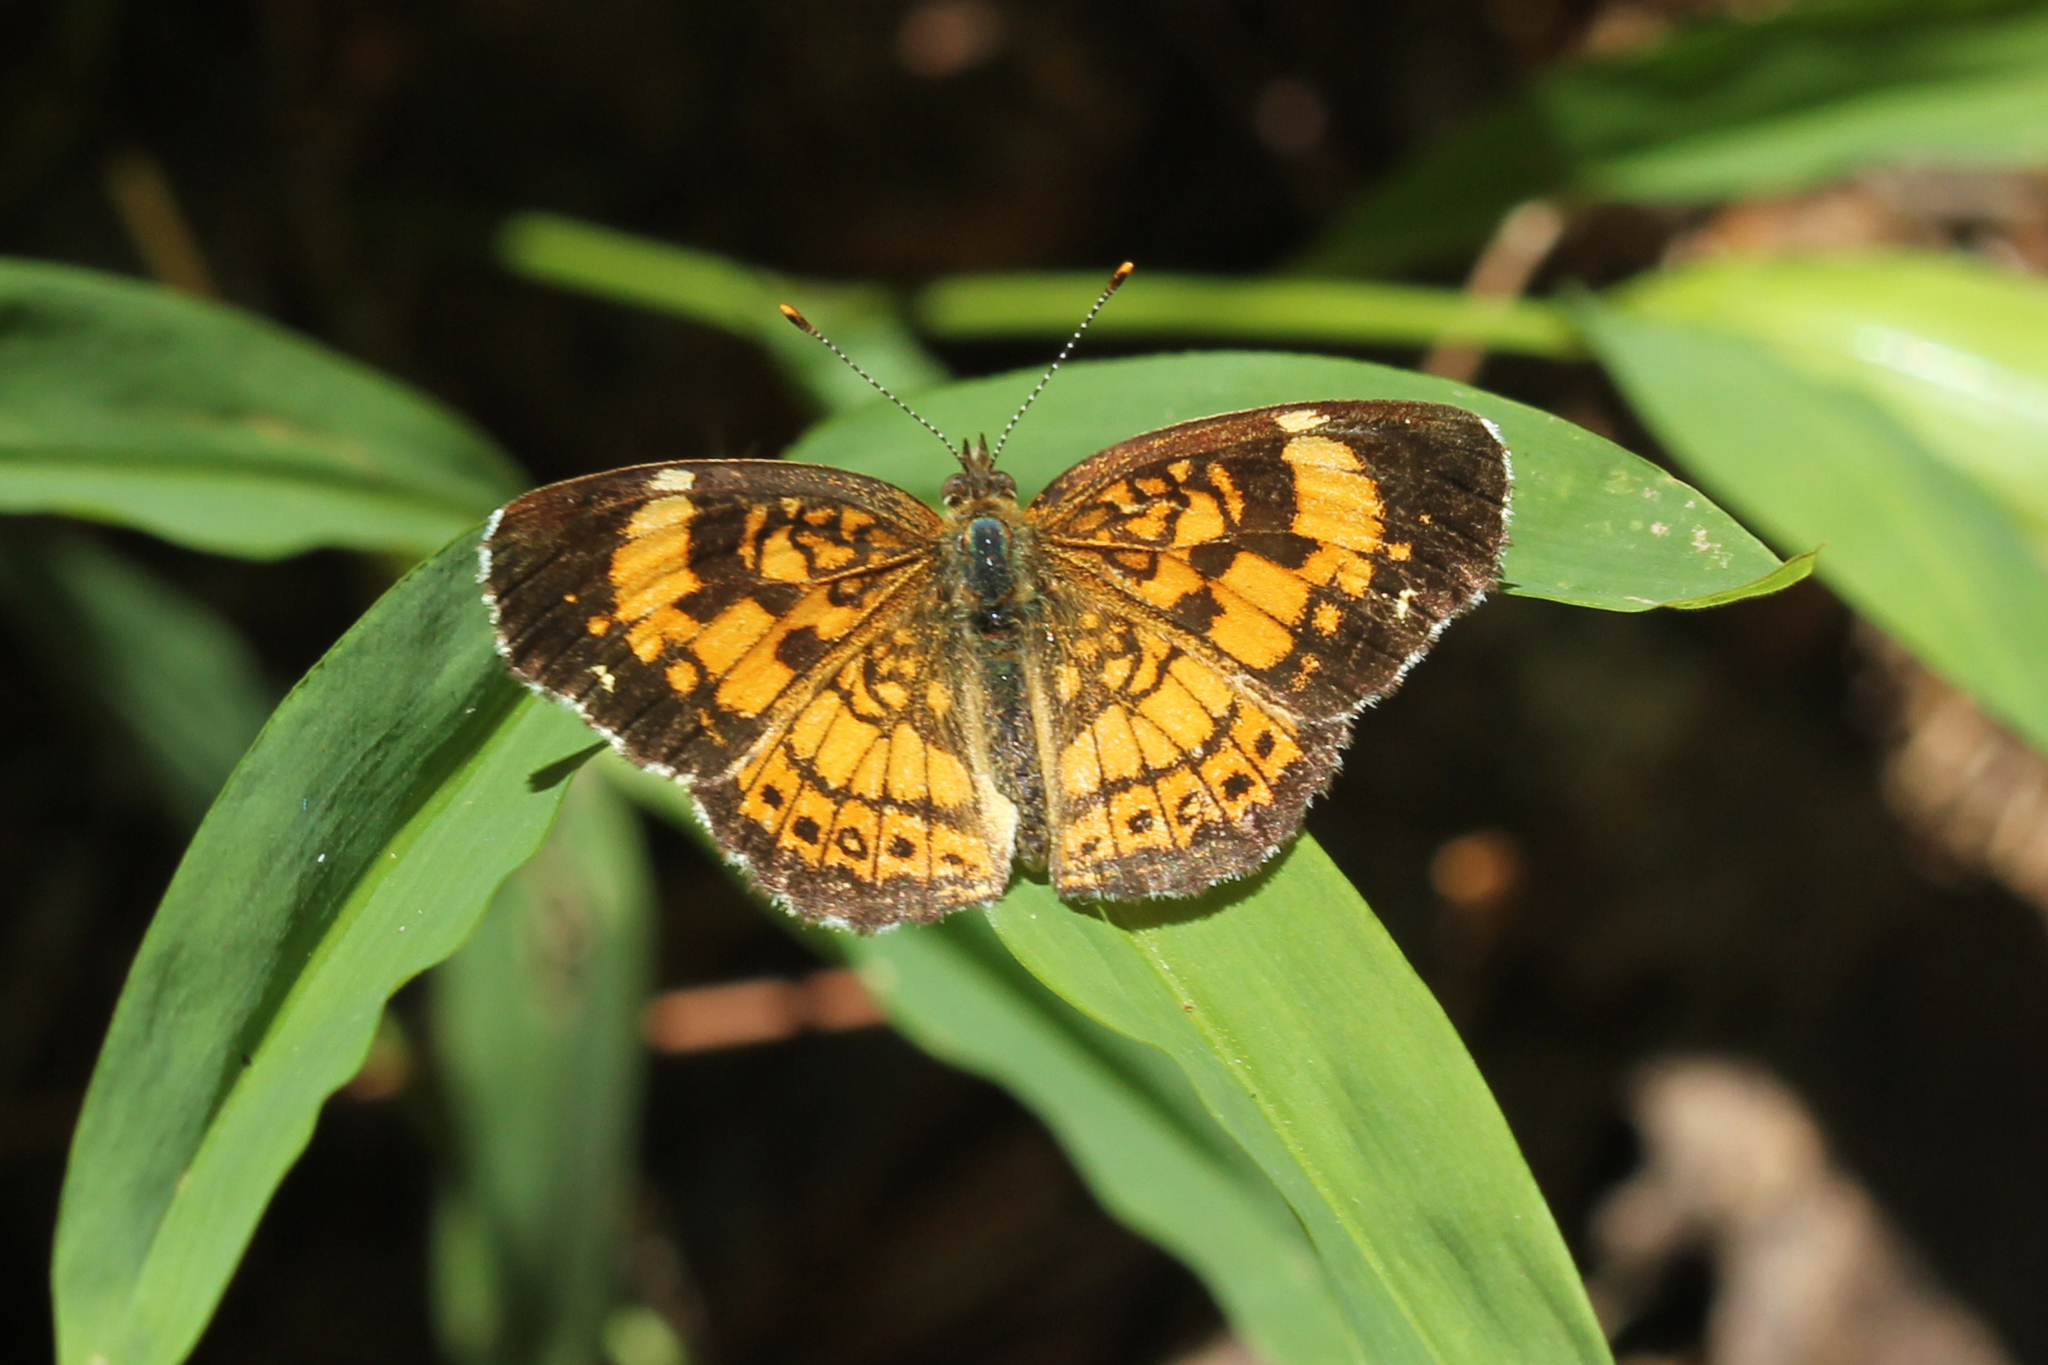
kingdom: Animalia
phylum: Arthropoda
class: Insecta
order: Lepidoptera
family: Nymphalidae
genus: Chlosyne
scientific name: Chlosyne nycteis
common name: Silvery checkerspot
